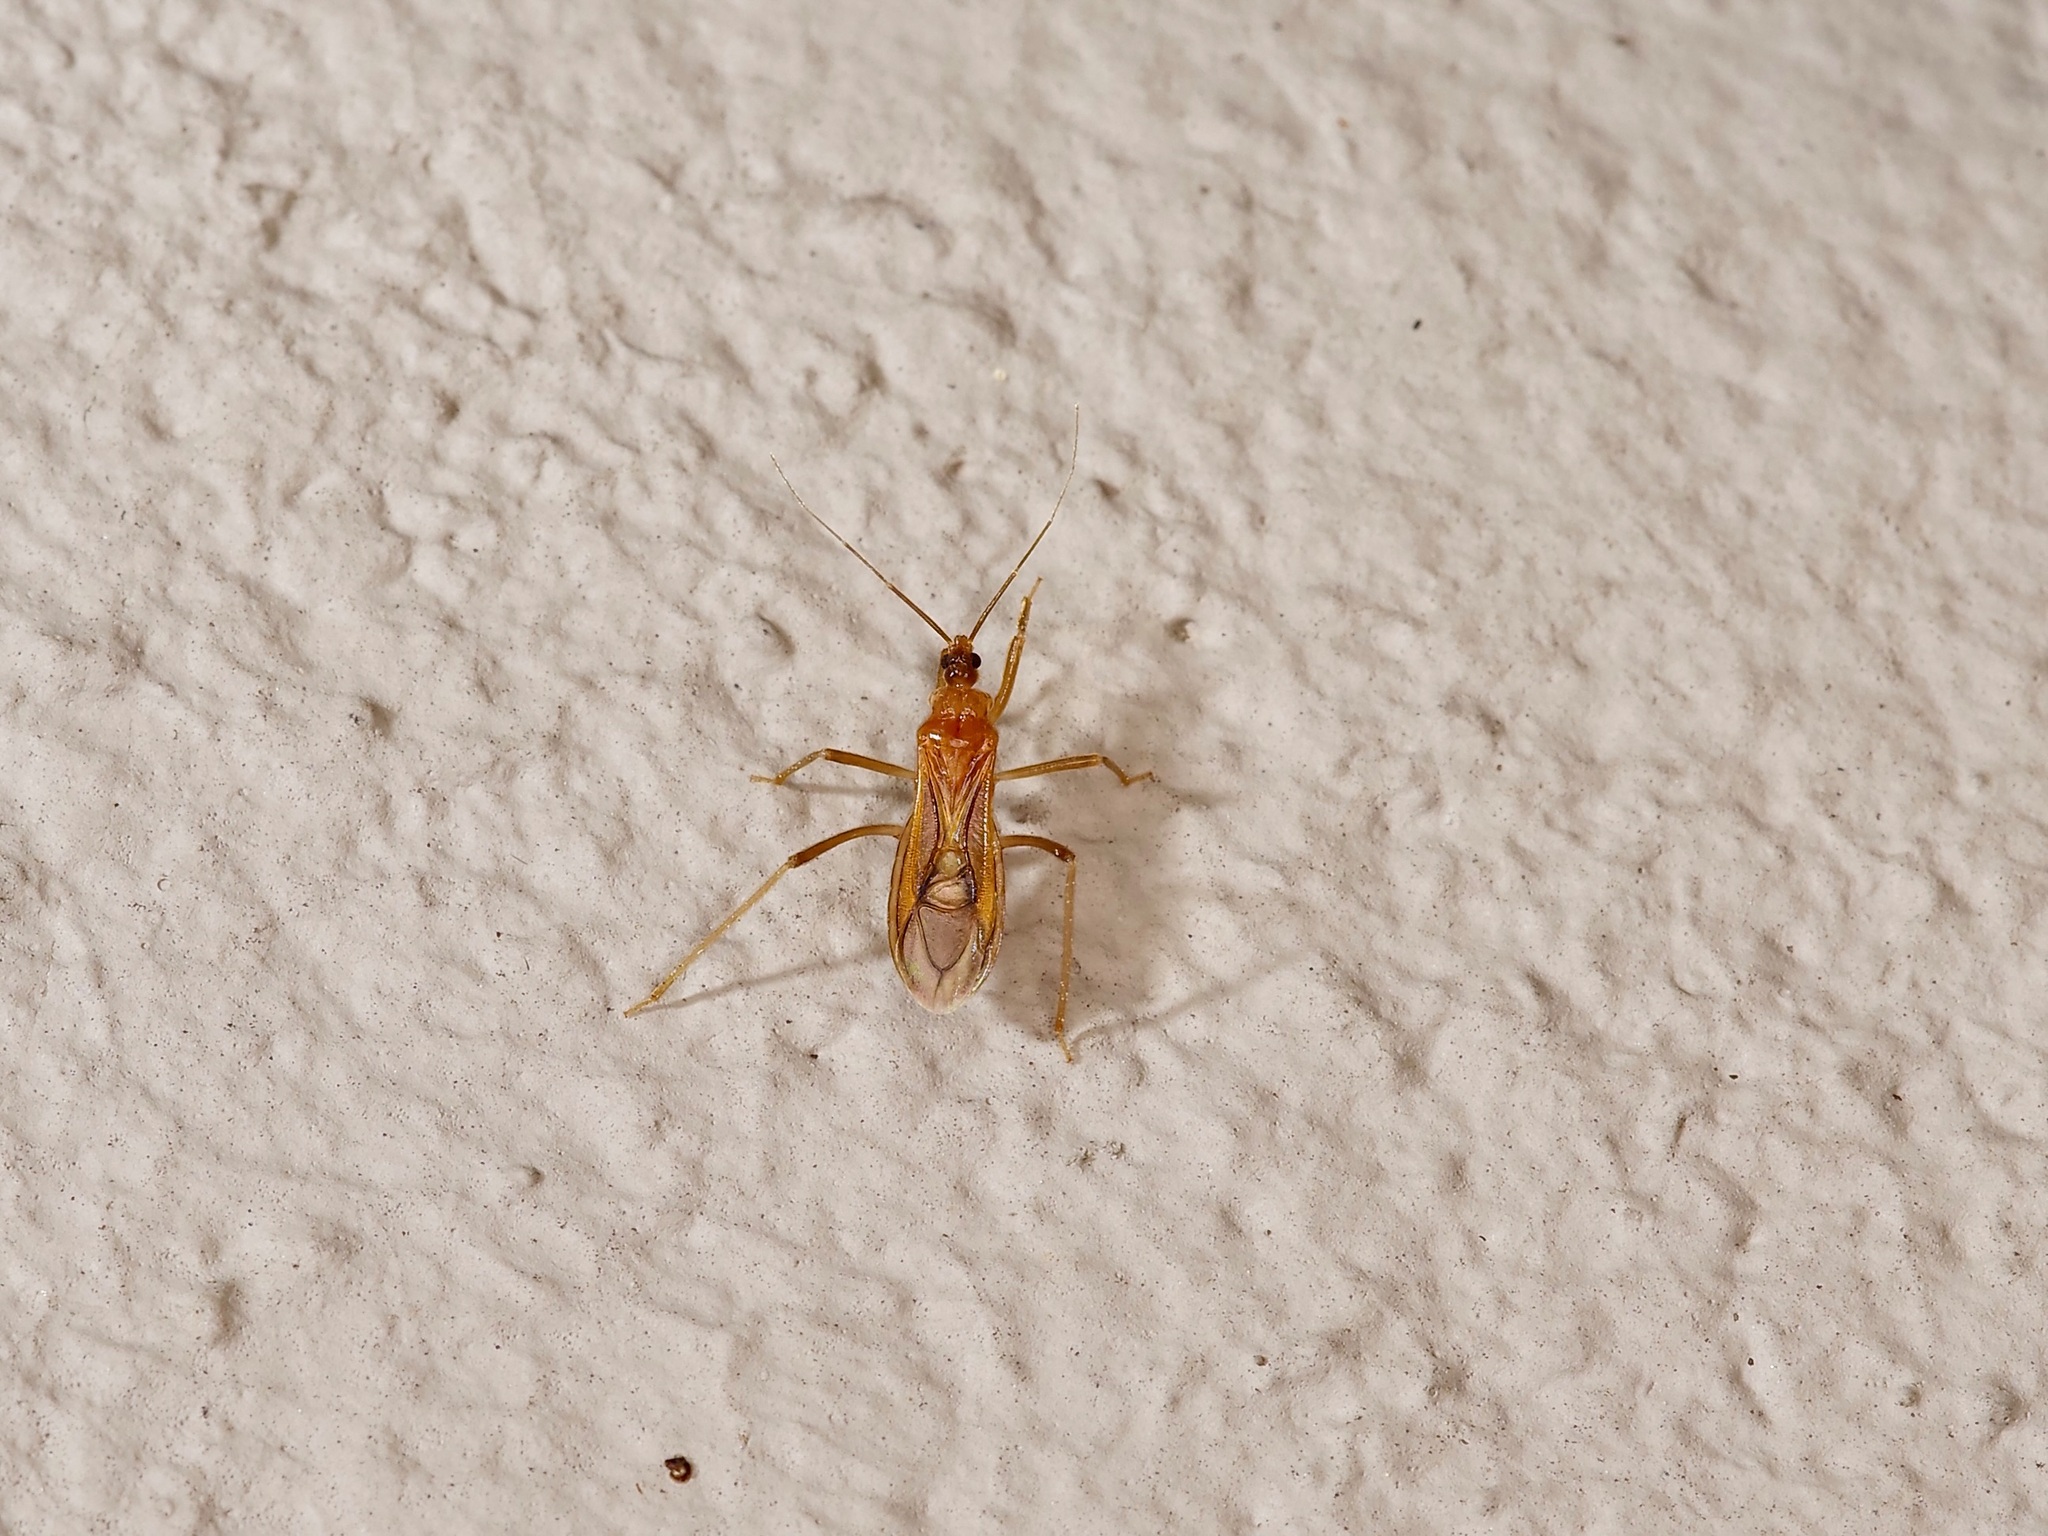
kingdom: Animalia
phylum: Arthropoda
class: Insecta
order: Hemiptera
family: Reduviidae
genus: Oncerotrachelus
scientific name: Oncerotrachelus pallidus
